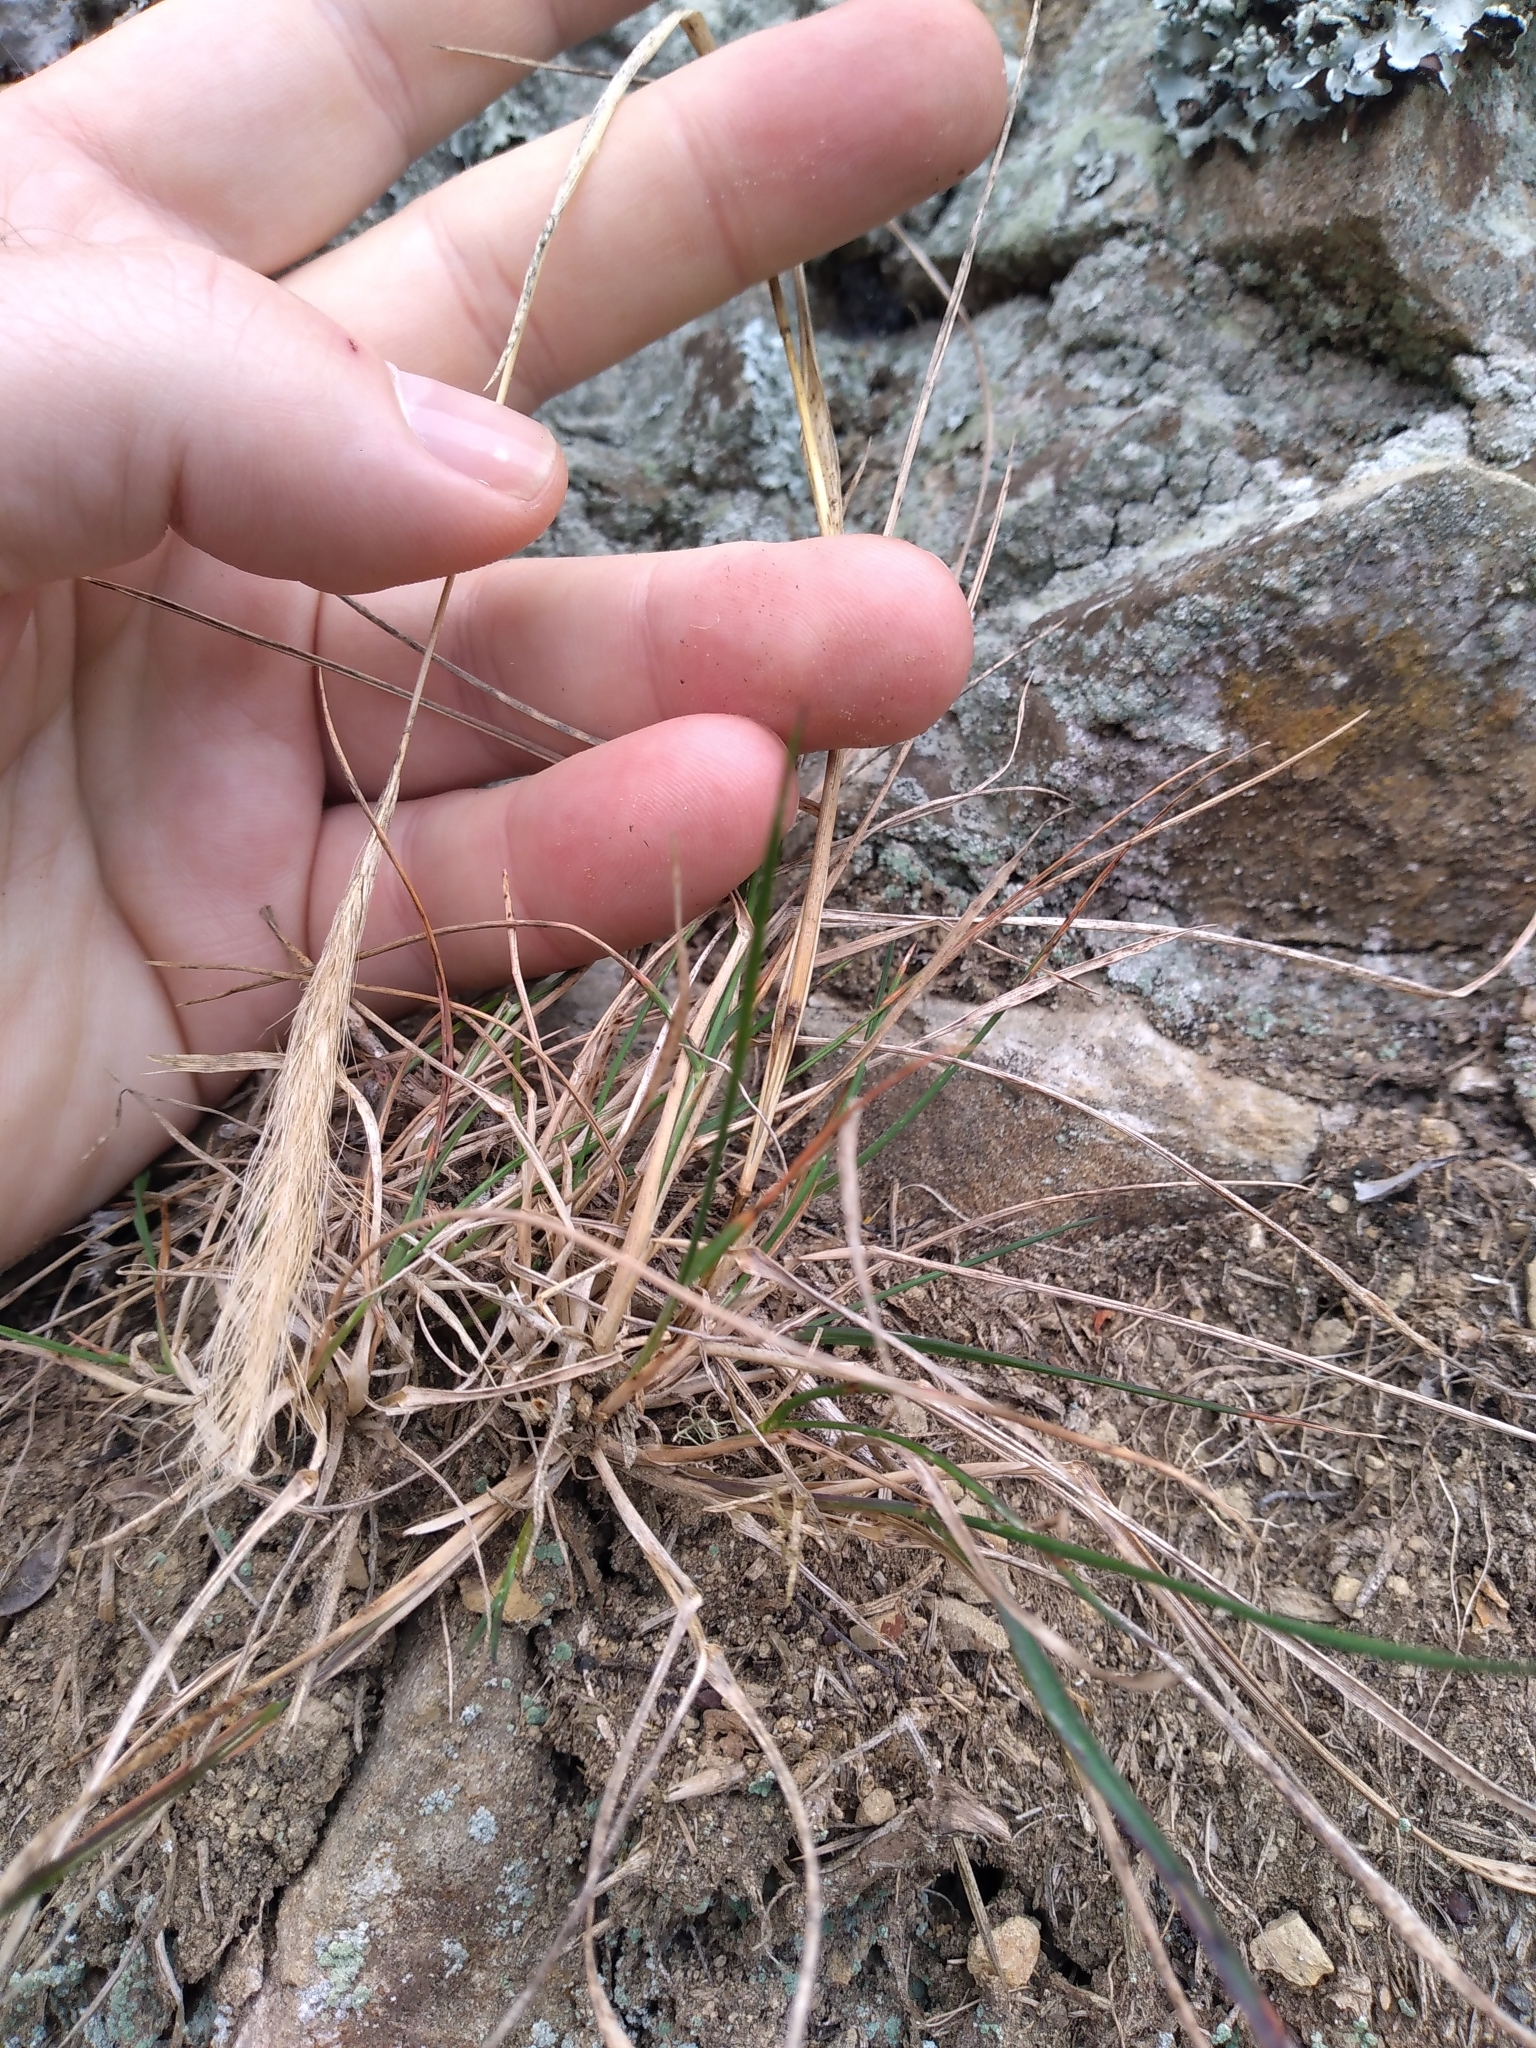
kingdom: Plantae
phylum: Tracheophyta
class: Liliopsida
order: Poales
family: Poaceae
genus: Dichelachne
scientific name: Dichelachne crinita
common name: Clovenfoot plumegrass
